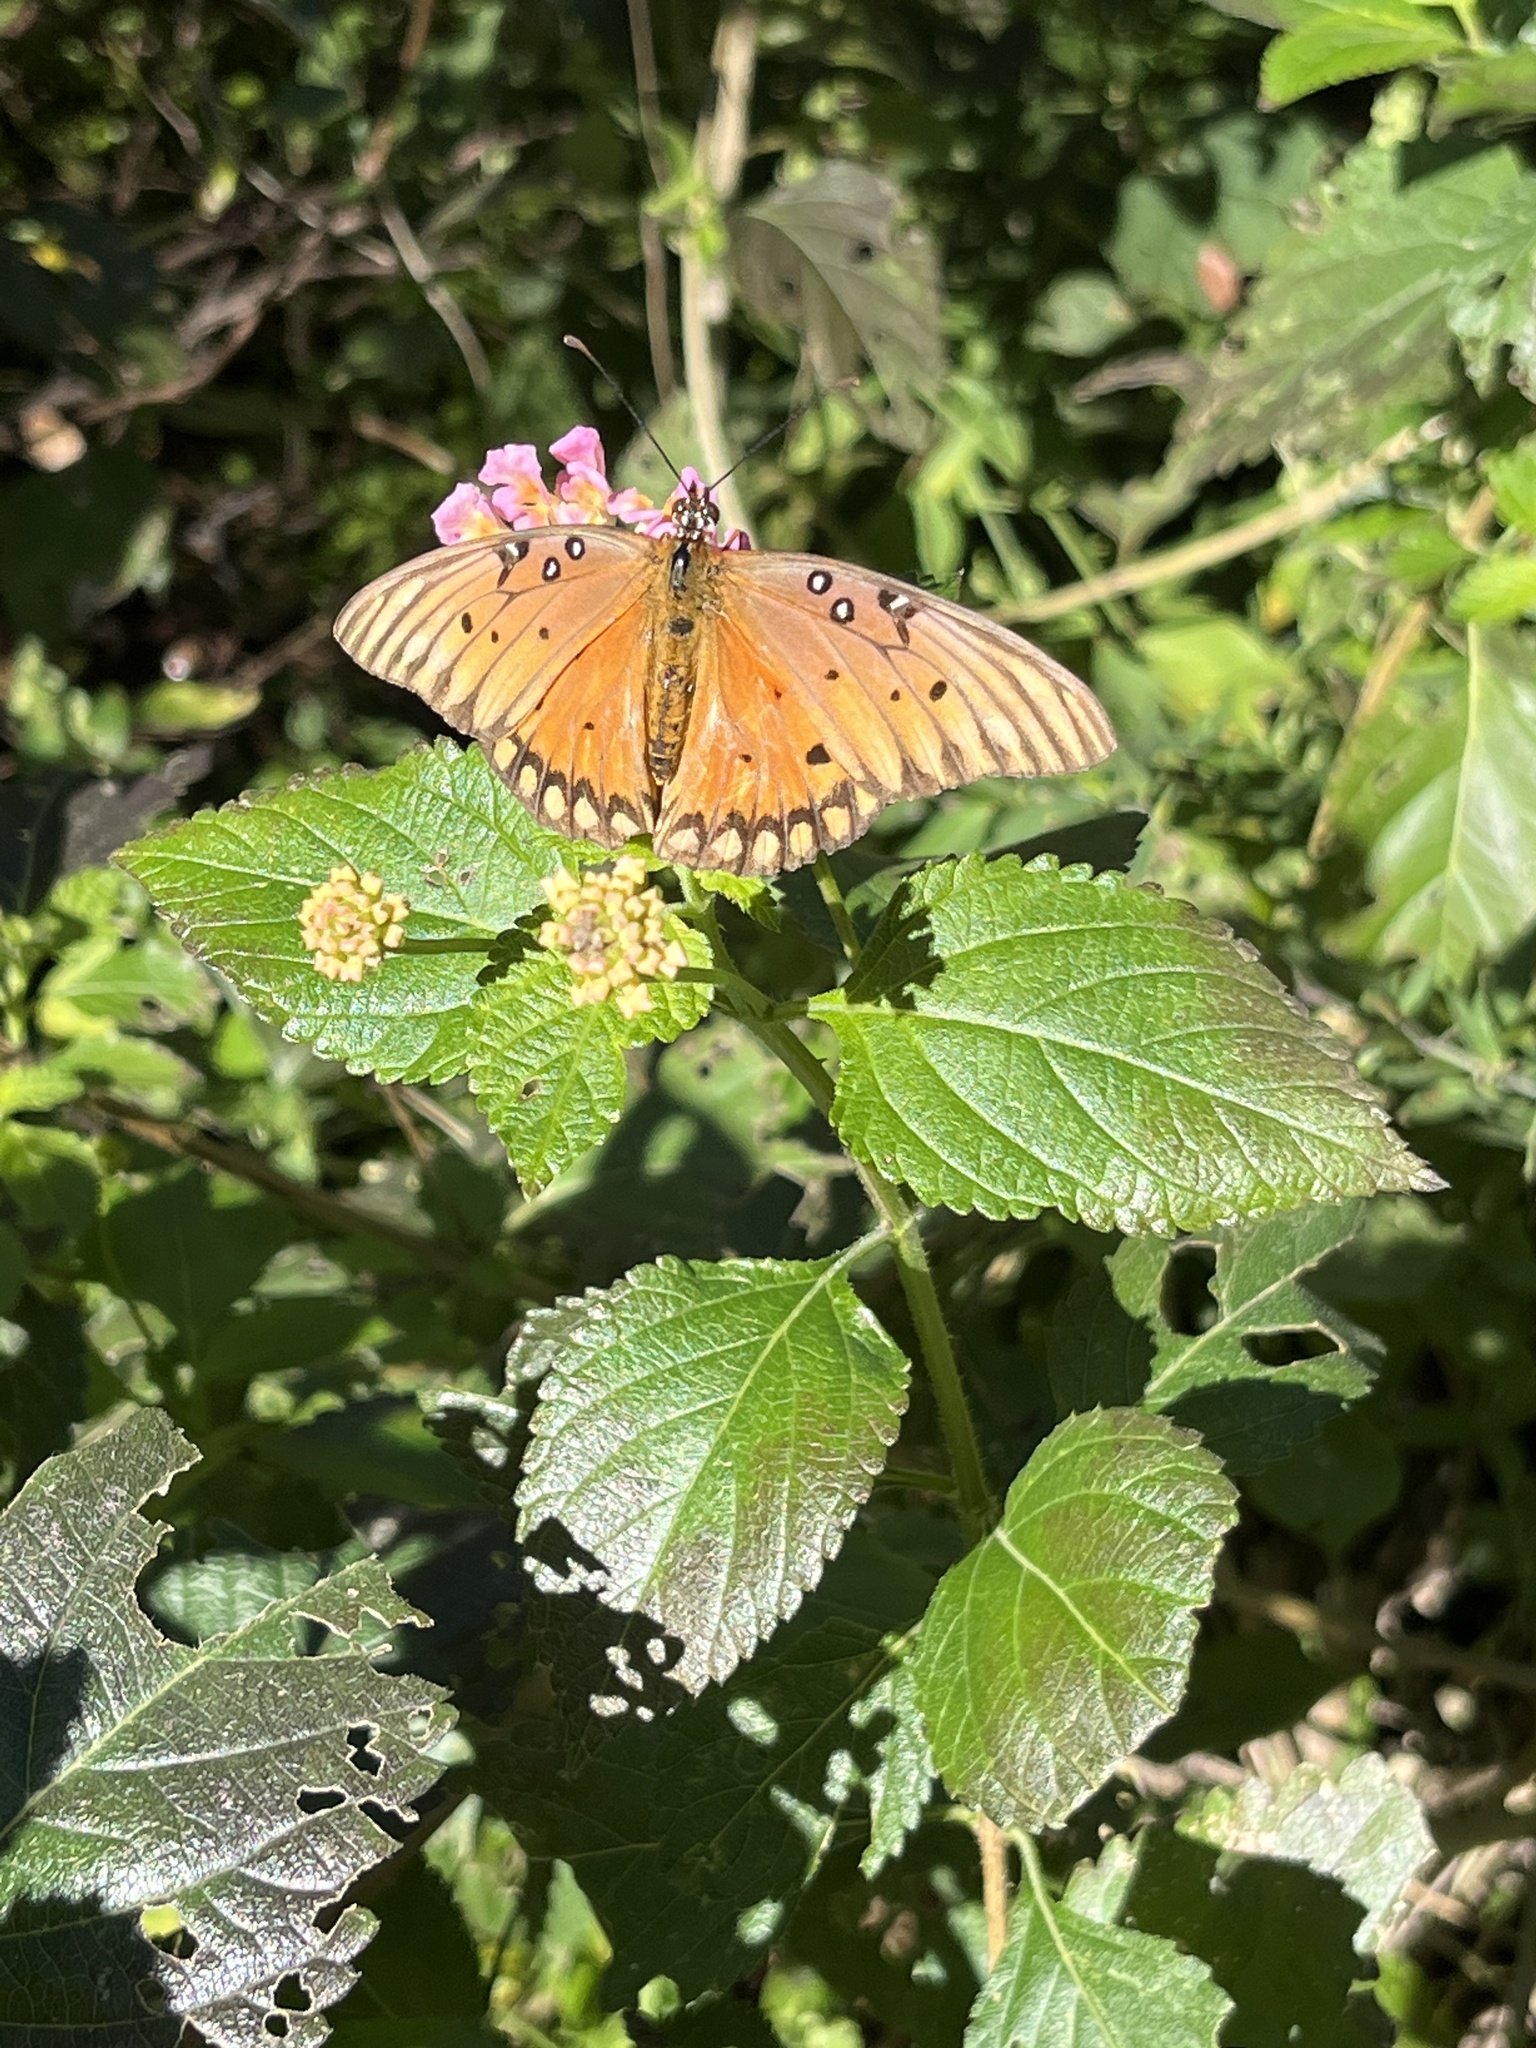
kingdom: Animalia
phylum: Arthropoda
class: Insecta
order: Lepidoptera
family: Nymphalidae
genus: Dione
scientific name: Dione vanillae
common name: Gulf fritillary
